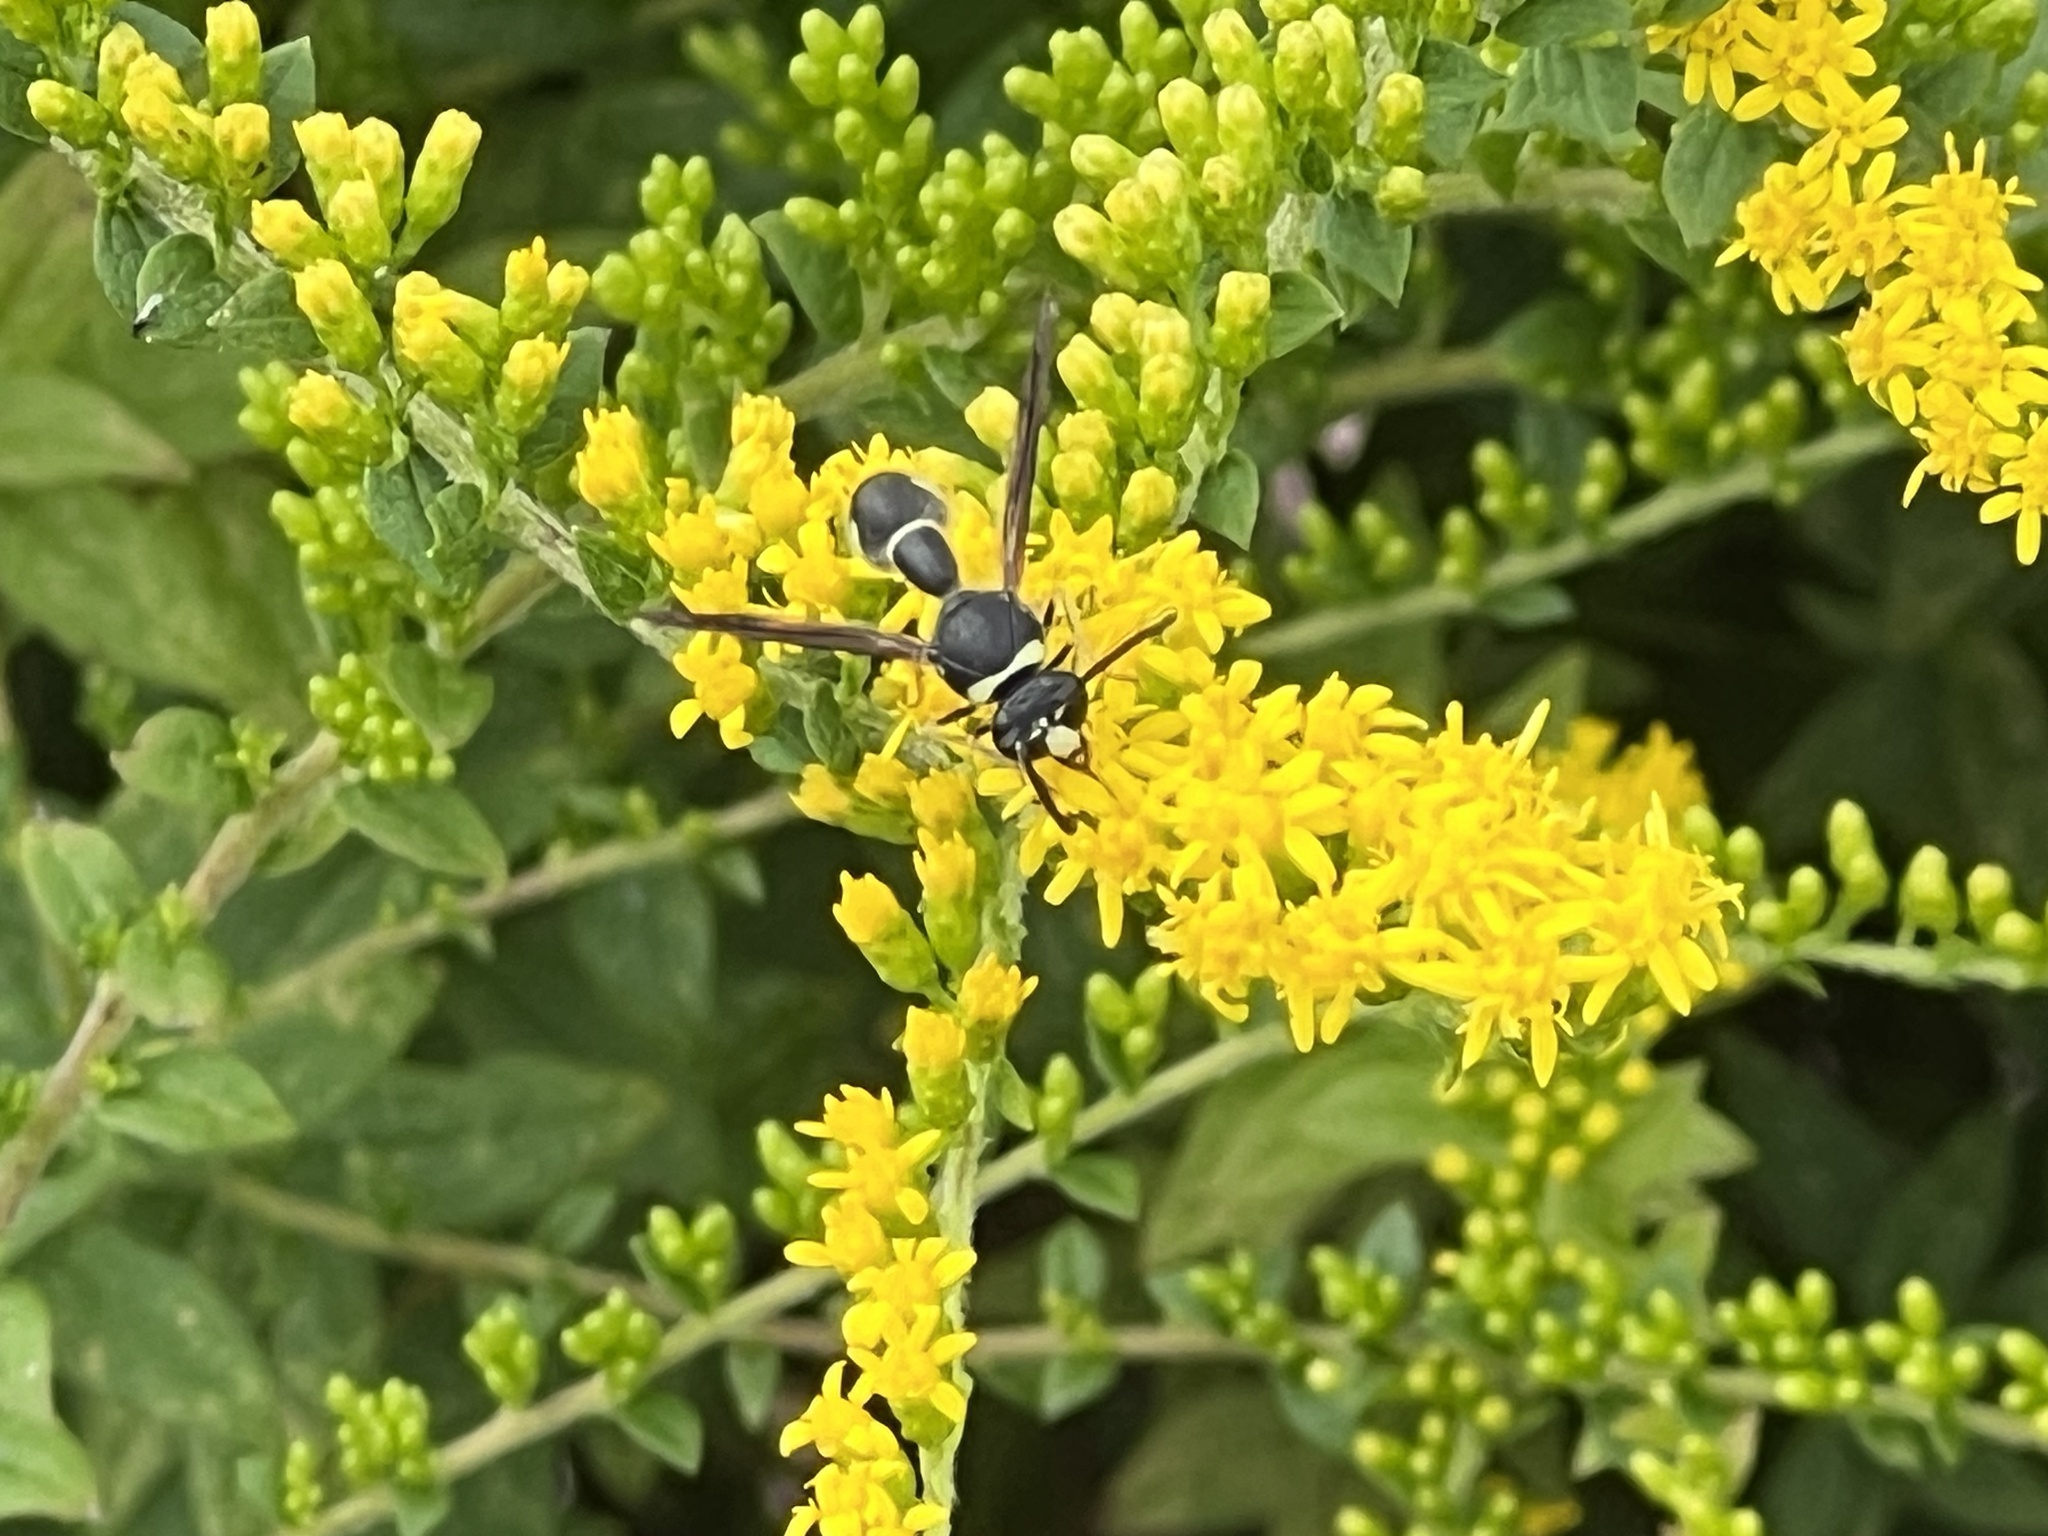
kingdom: Animalia
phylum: Arthropoda
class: Insecta
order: Hymenoptera
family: Vespidae
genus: Eumenes
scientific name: Eumenes fraternus
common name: Fraternal potter wasp
